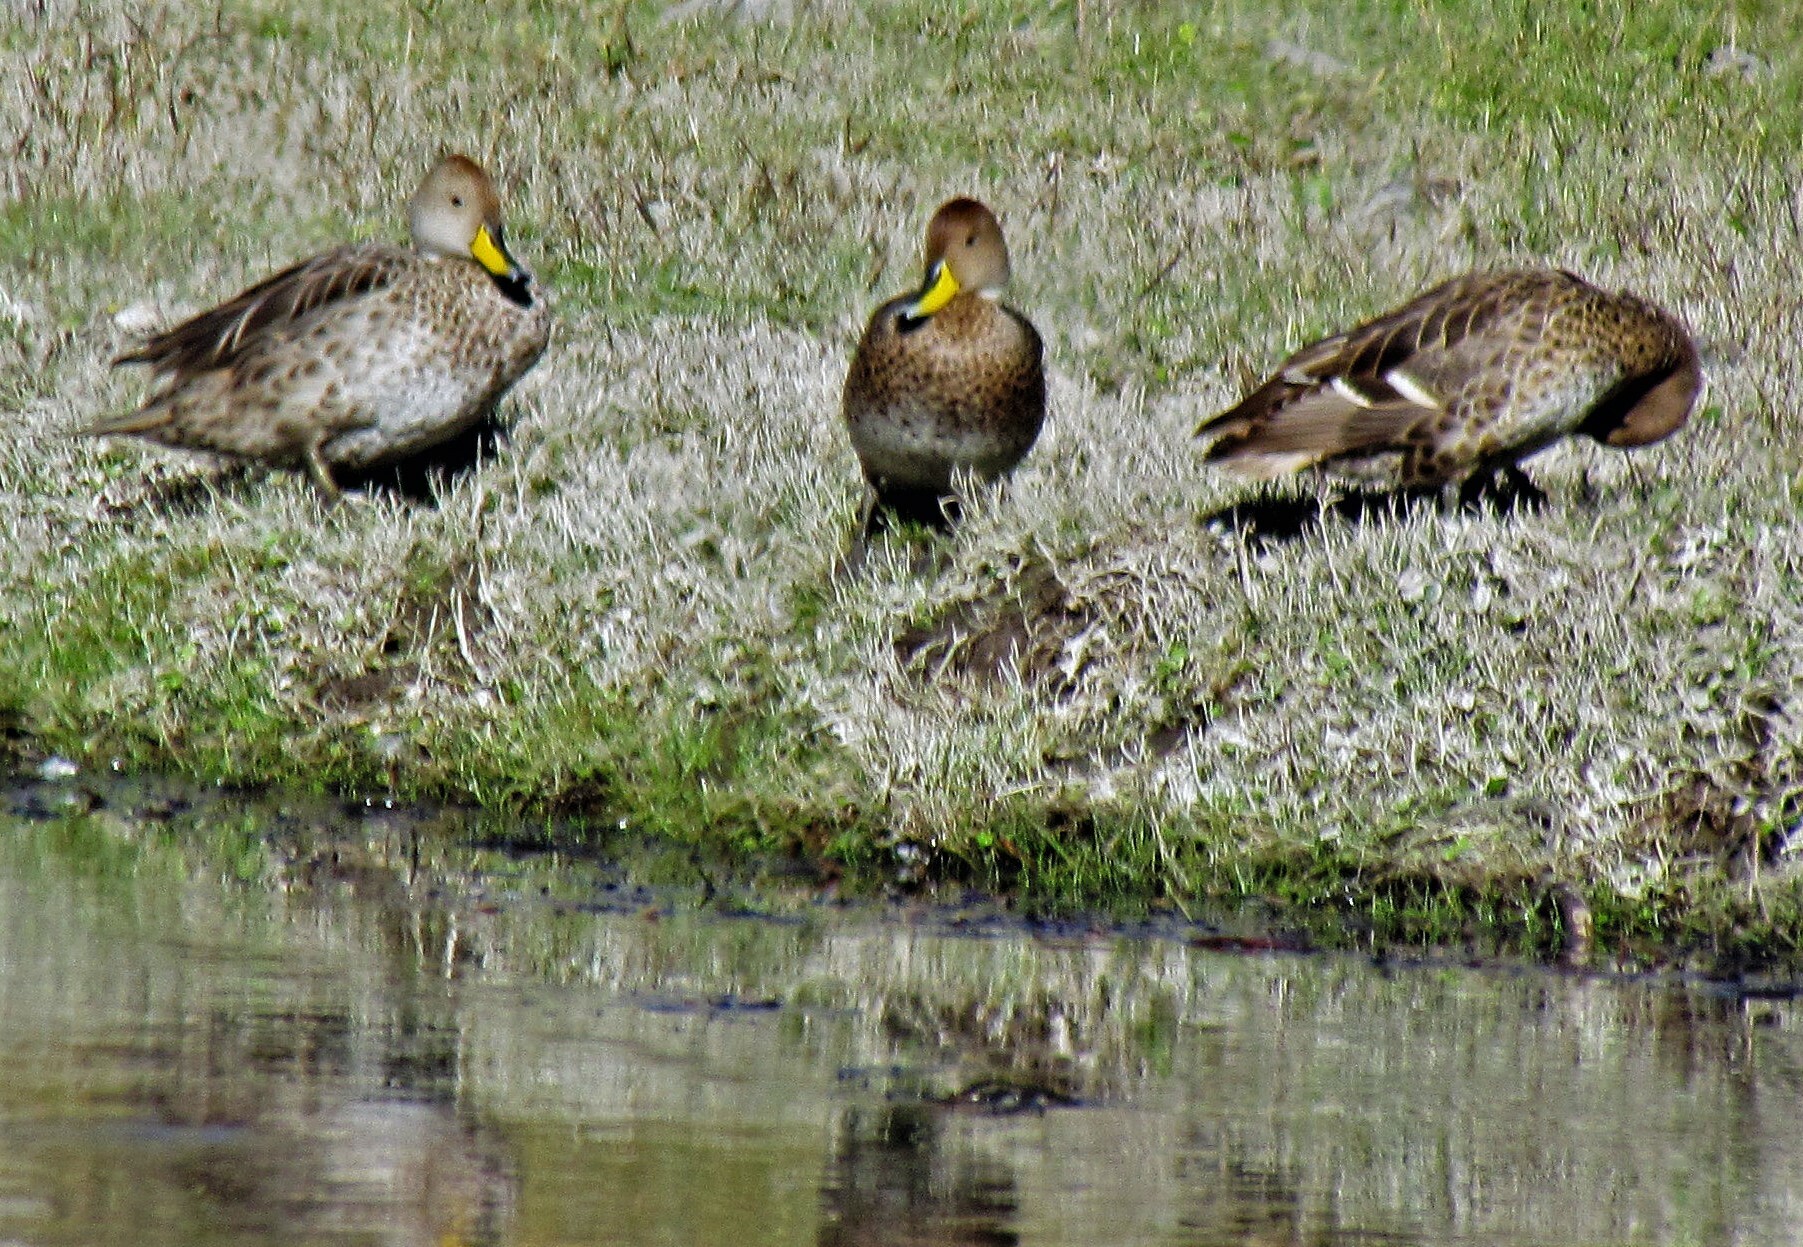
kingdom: Animalia
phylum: Chordata
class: Aves
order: Anseriformes
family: Anatidae
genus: Anas
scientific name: Anas georgica
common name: Yellow-billed pintail
